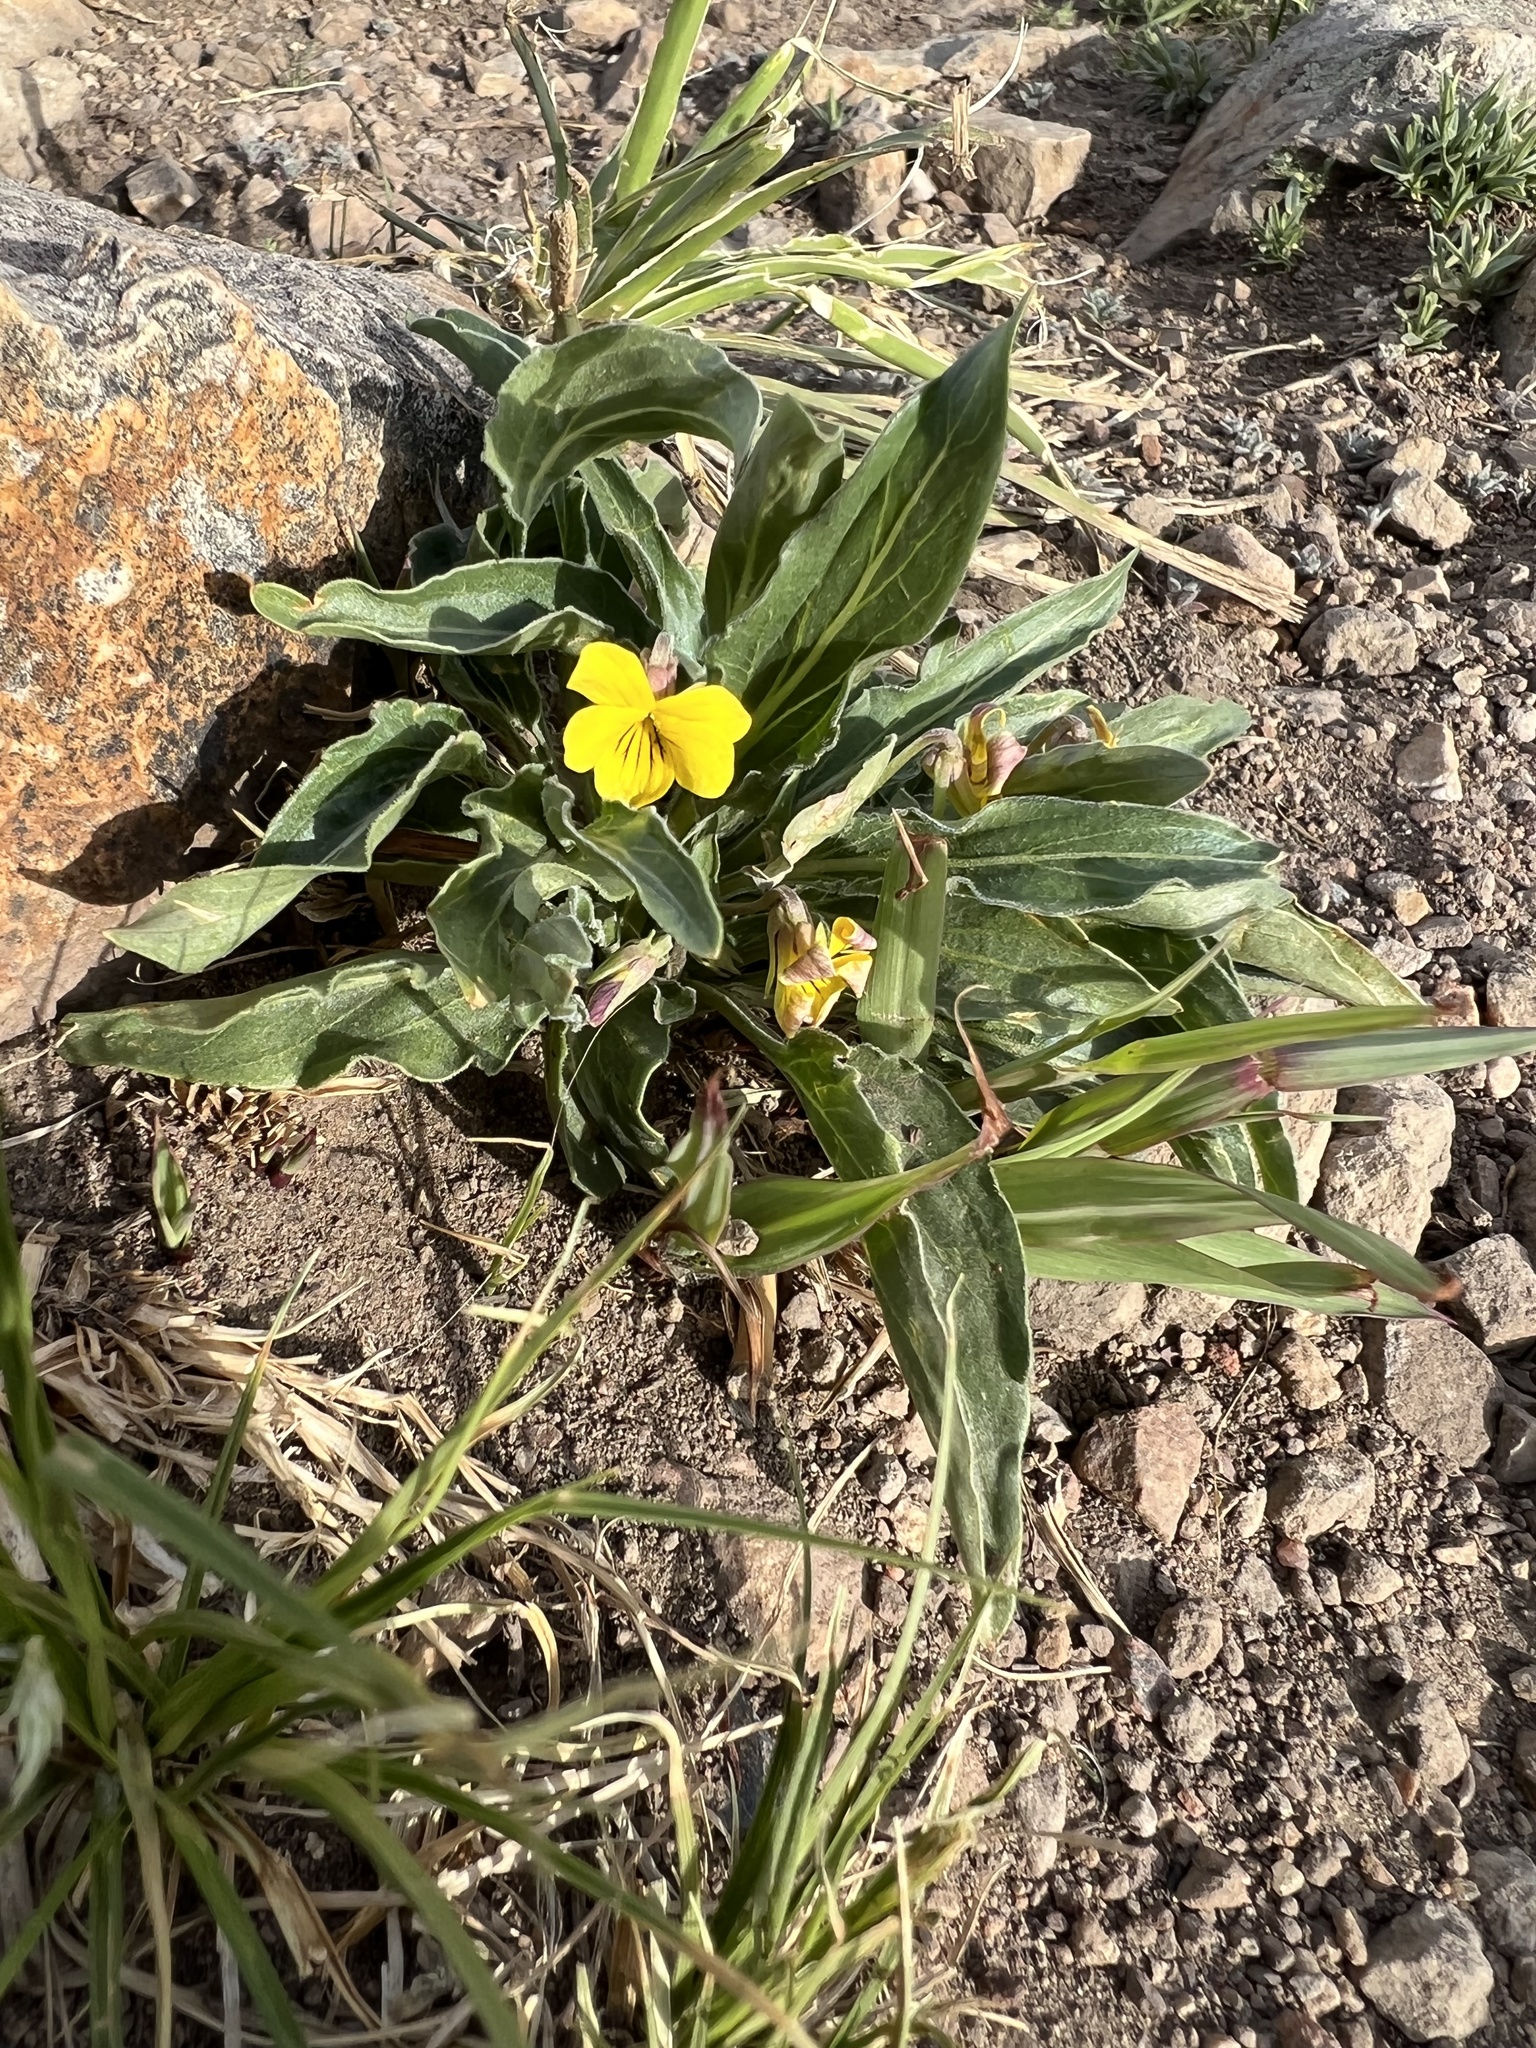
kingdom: Plantae
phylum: Tracheophyta
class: Magnoliopsida
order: Malpighiales
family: Violaceae
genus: Viola
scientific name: Viola nuttallii
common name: Yellow prairie violet
